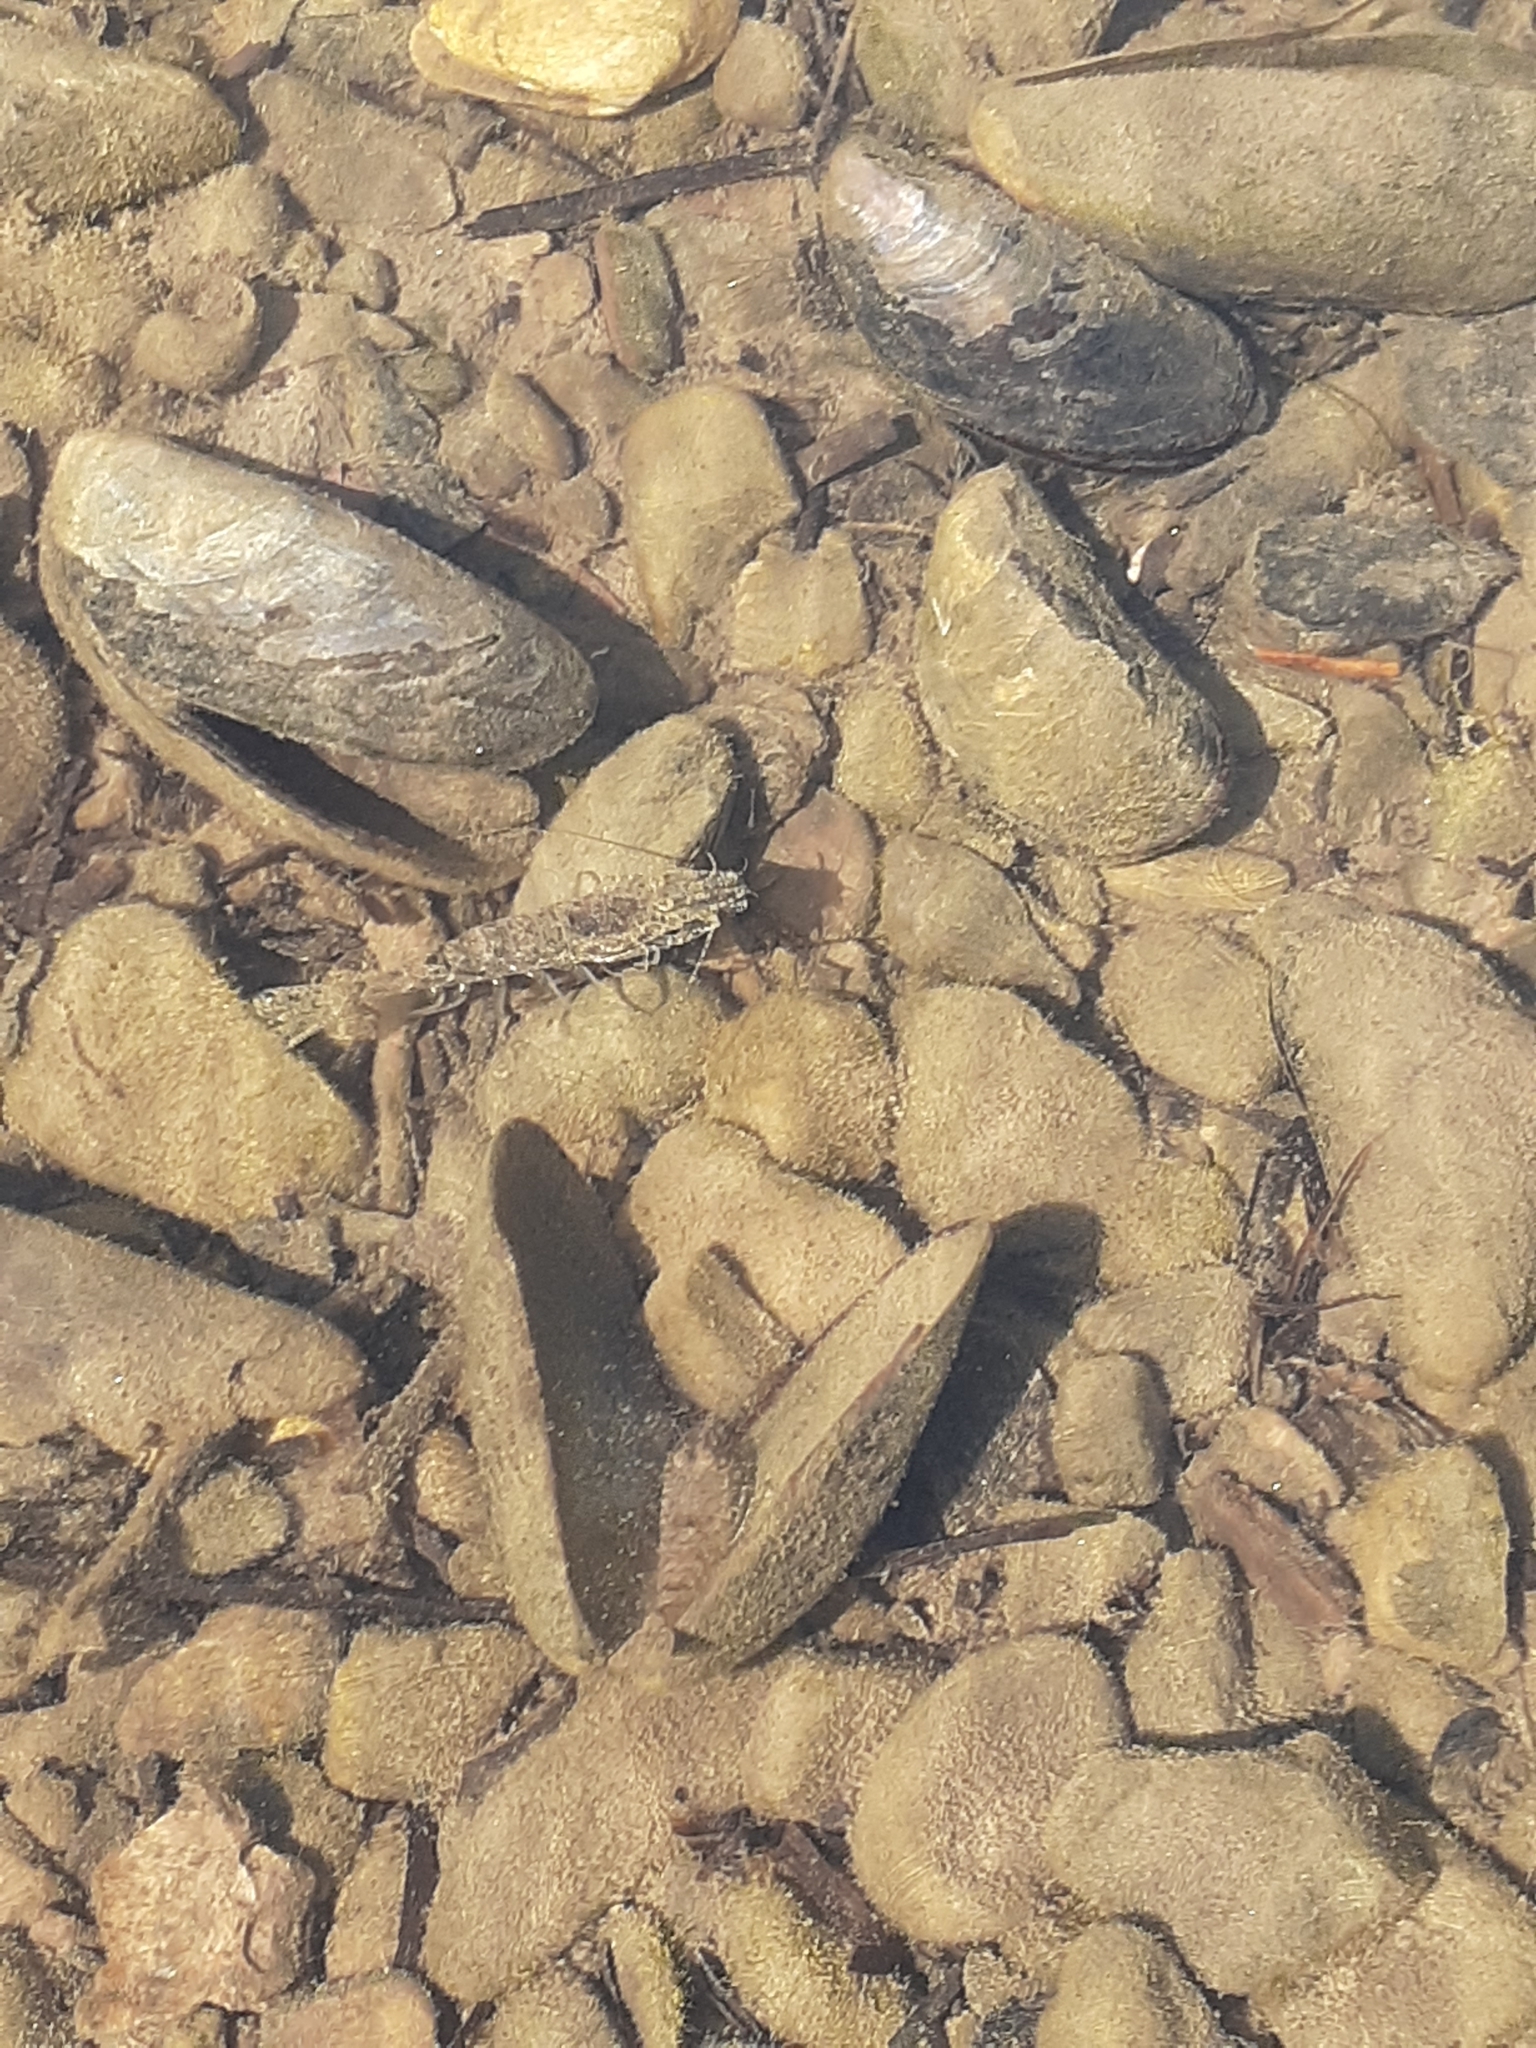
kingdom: Animalia
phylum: Arthropoda
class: Malacostraca
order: Decapoda
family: Crangonidae
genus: Crangon
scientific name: Crangon septemspinosa
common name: Bail shrimp
